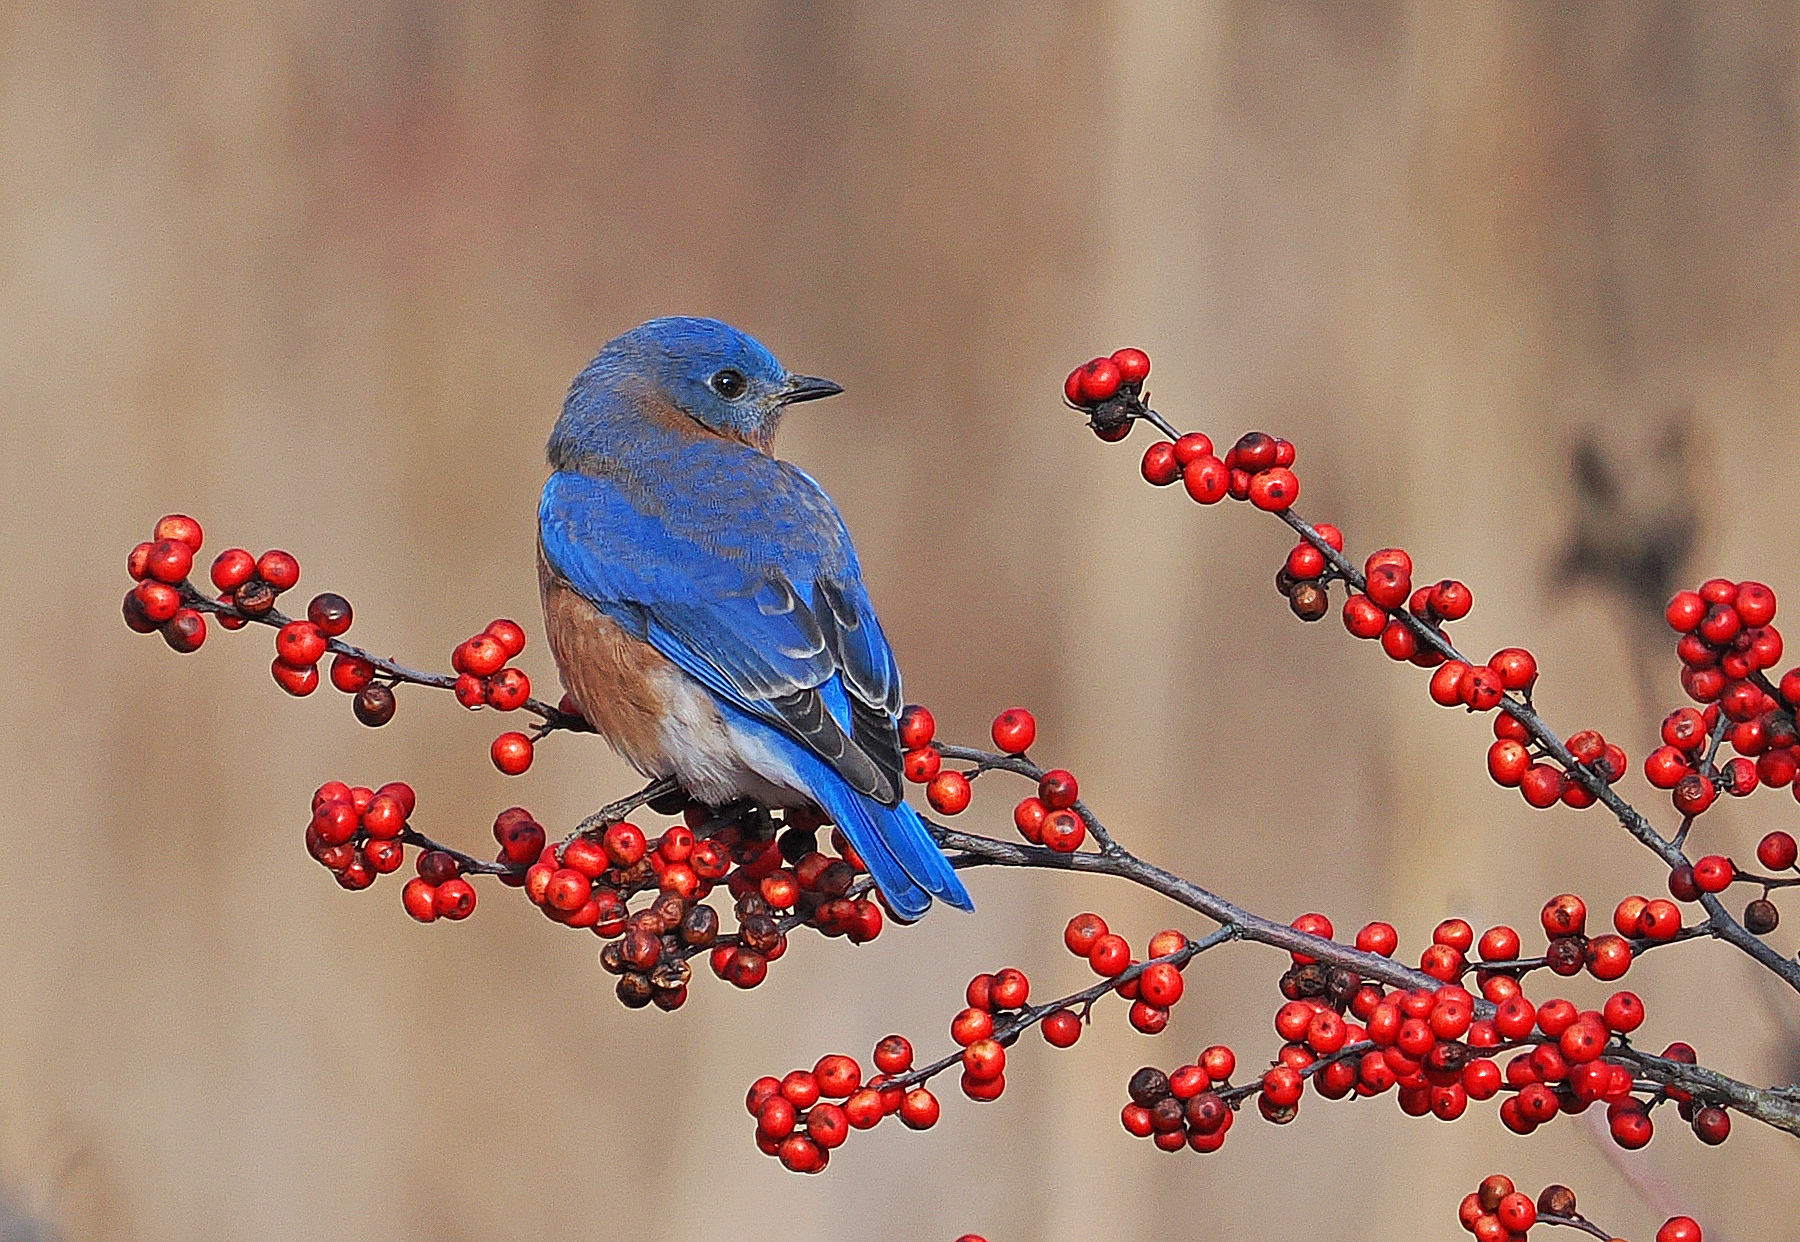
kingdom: Animalia
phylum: Chordata
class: Aves
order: Passeriformes
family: Turdidae
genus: Sialia
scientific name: Sialia sialis
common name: Eastern bluebird
